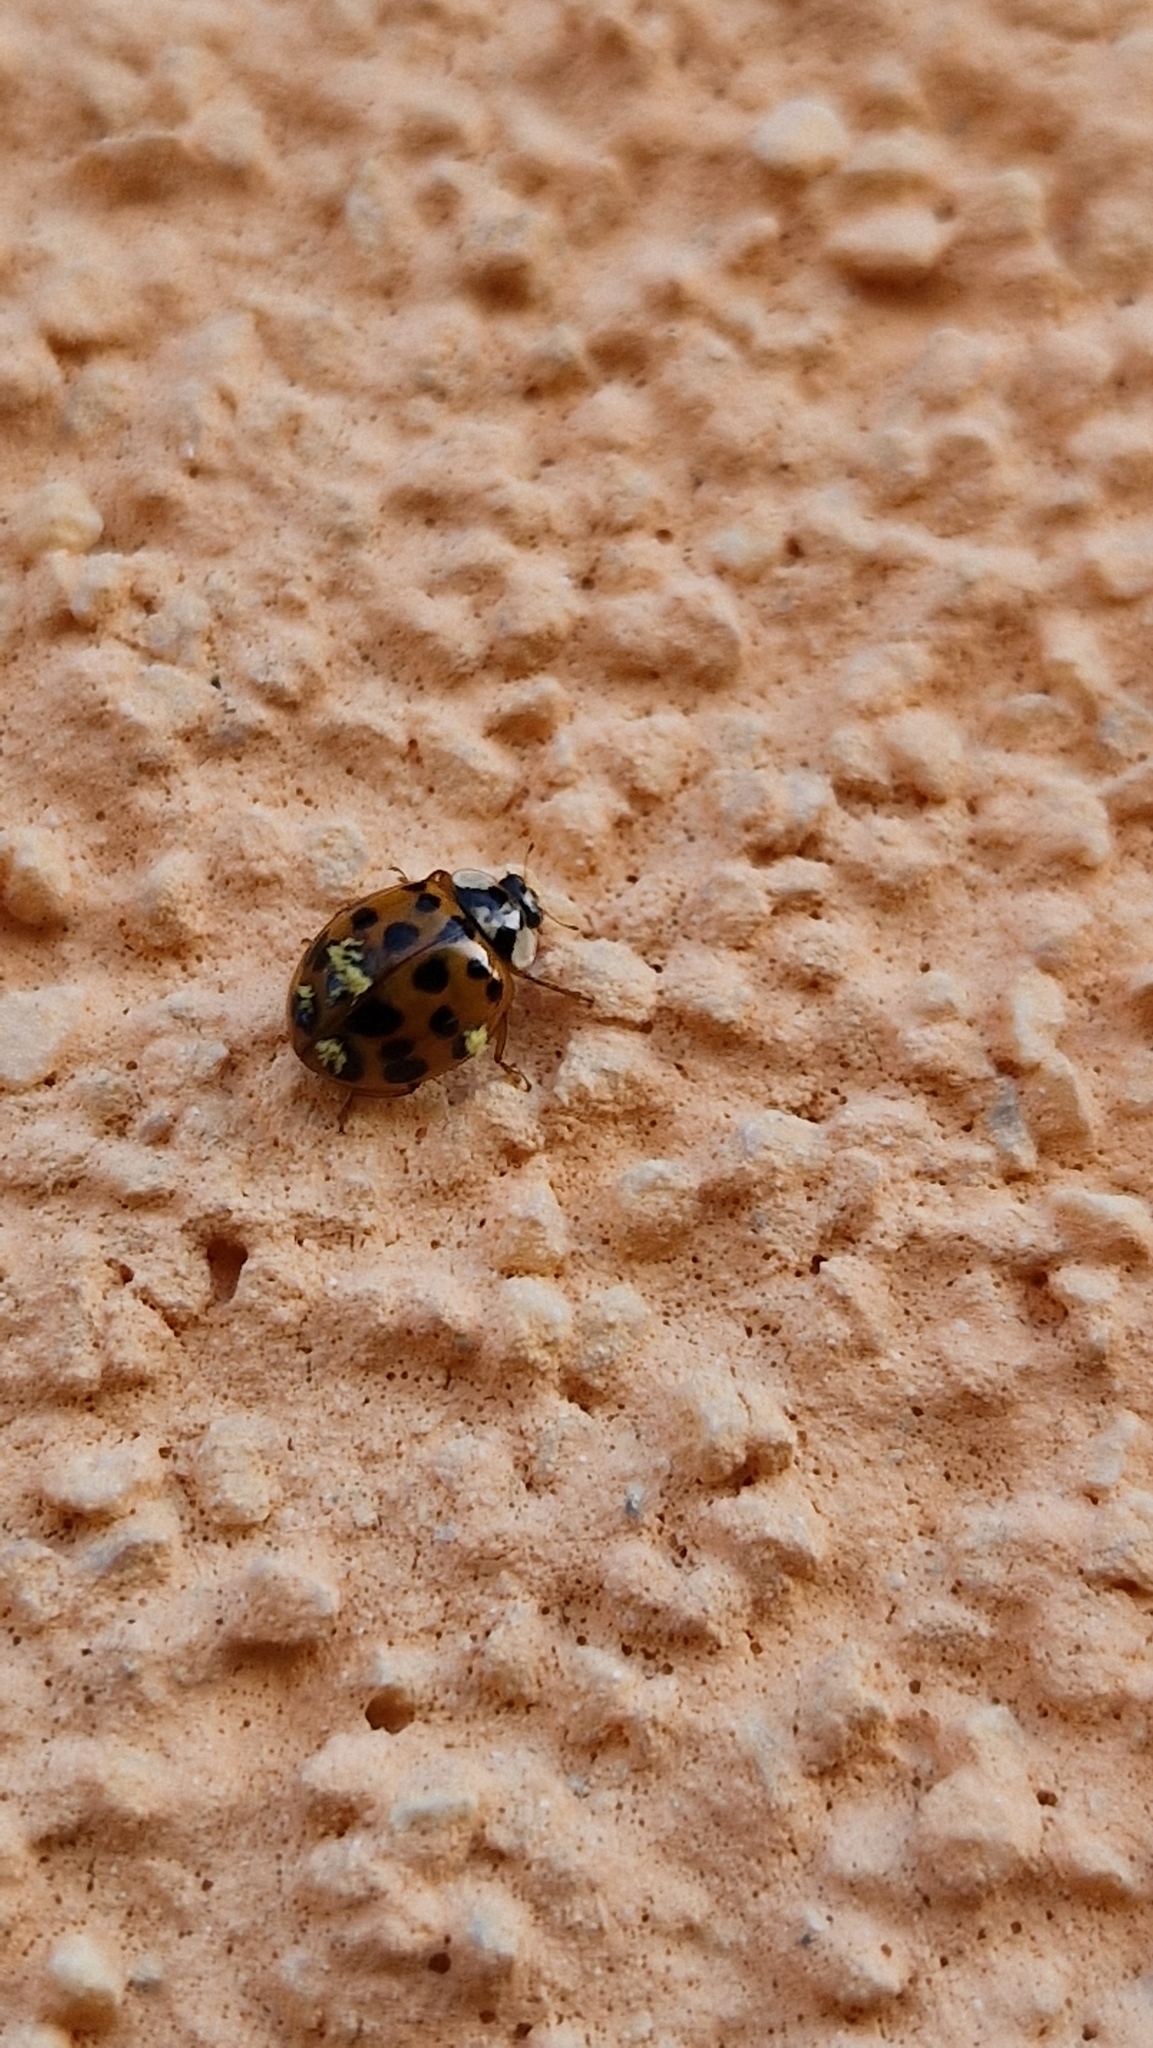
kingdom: Animalia
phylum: Arthropoda
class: Insecta
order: Coleoptera
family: Coccinellidae
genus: Harmonia
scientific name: Harmonia axyridis
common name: Harlequin ladybird
